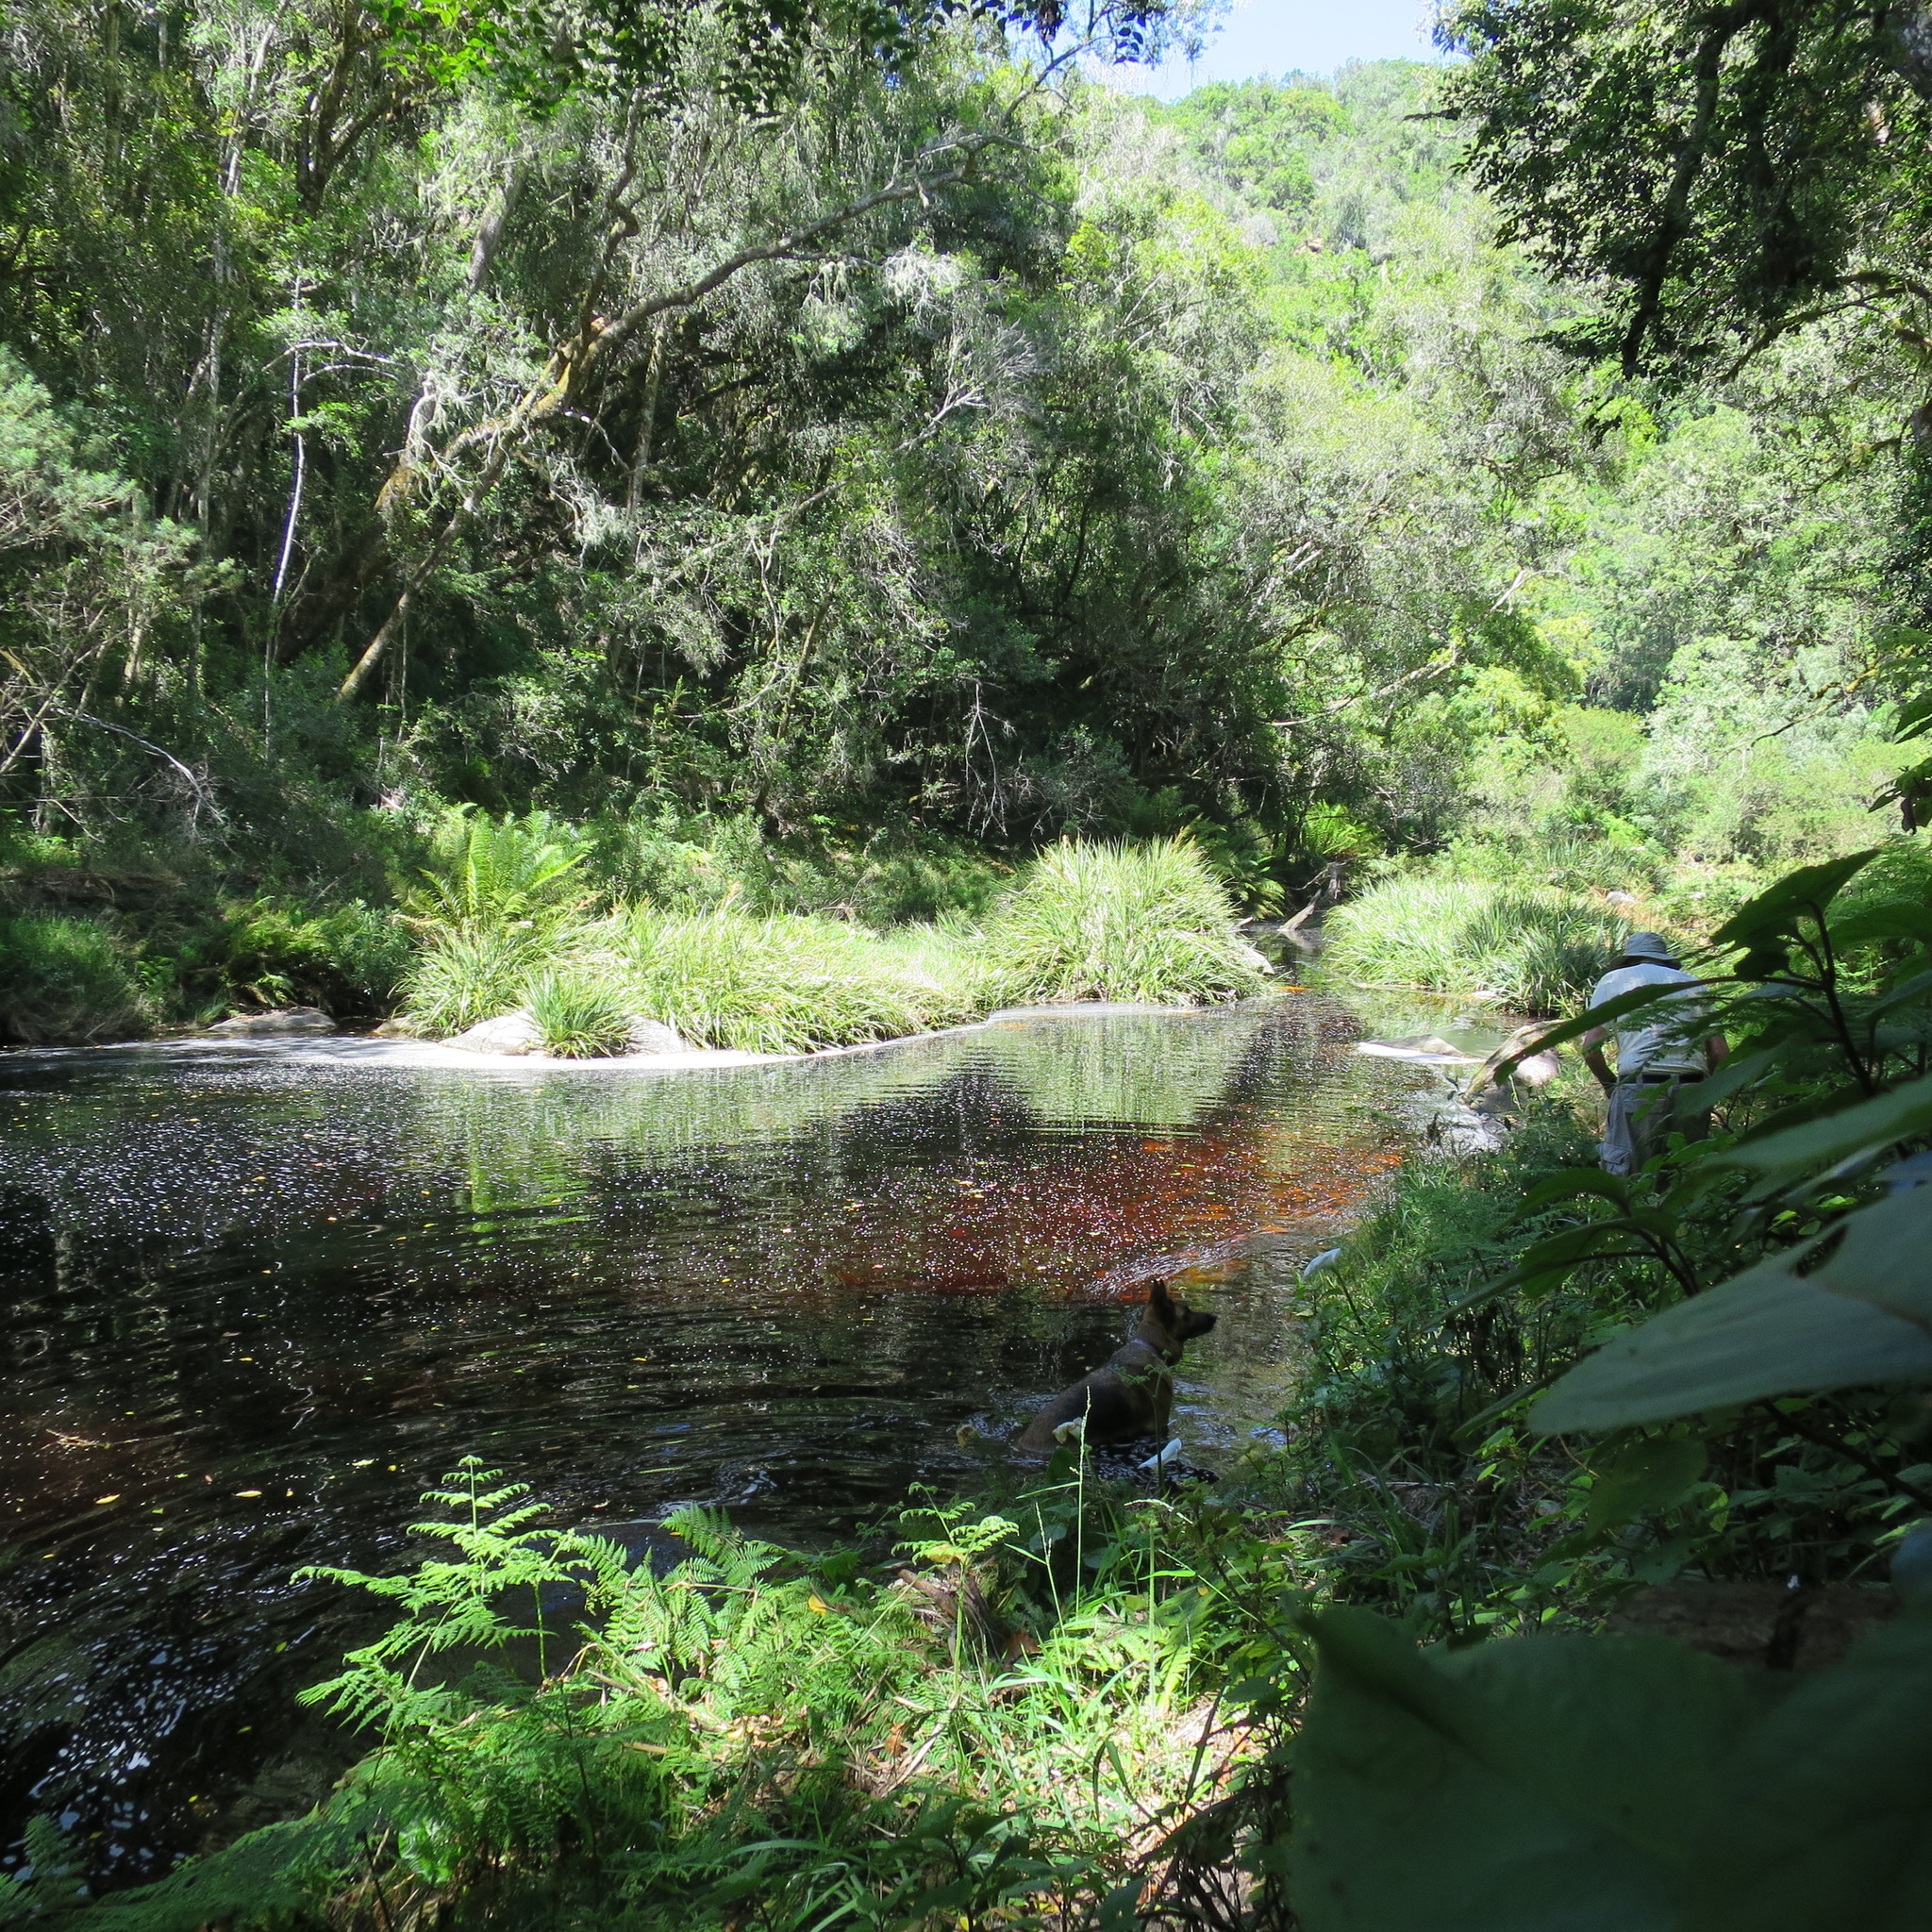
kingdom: Plantae
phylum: Tracheophyta
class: Polypodiopsida
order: Polypodiales
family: Dennstaedtiaceae
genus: Hypolepis
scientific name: Hypolepis sparsisora
